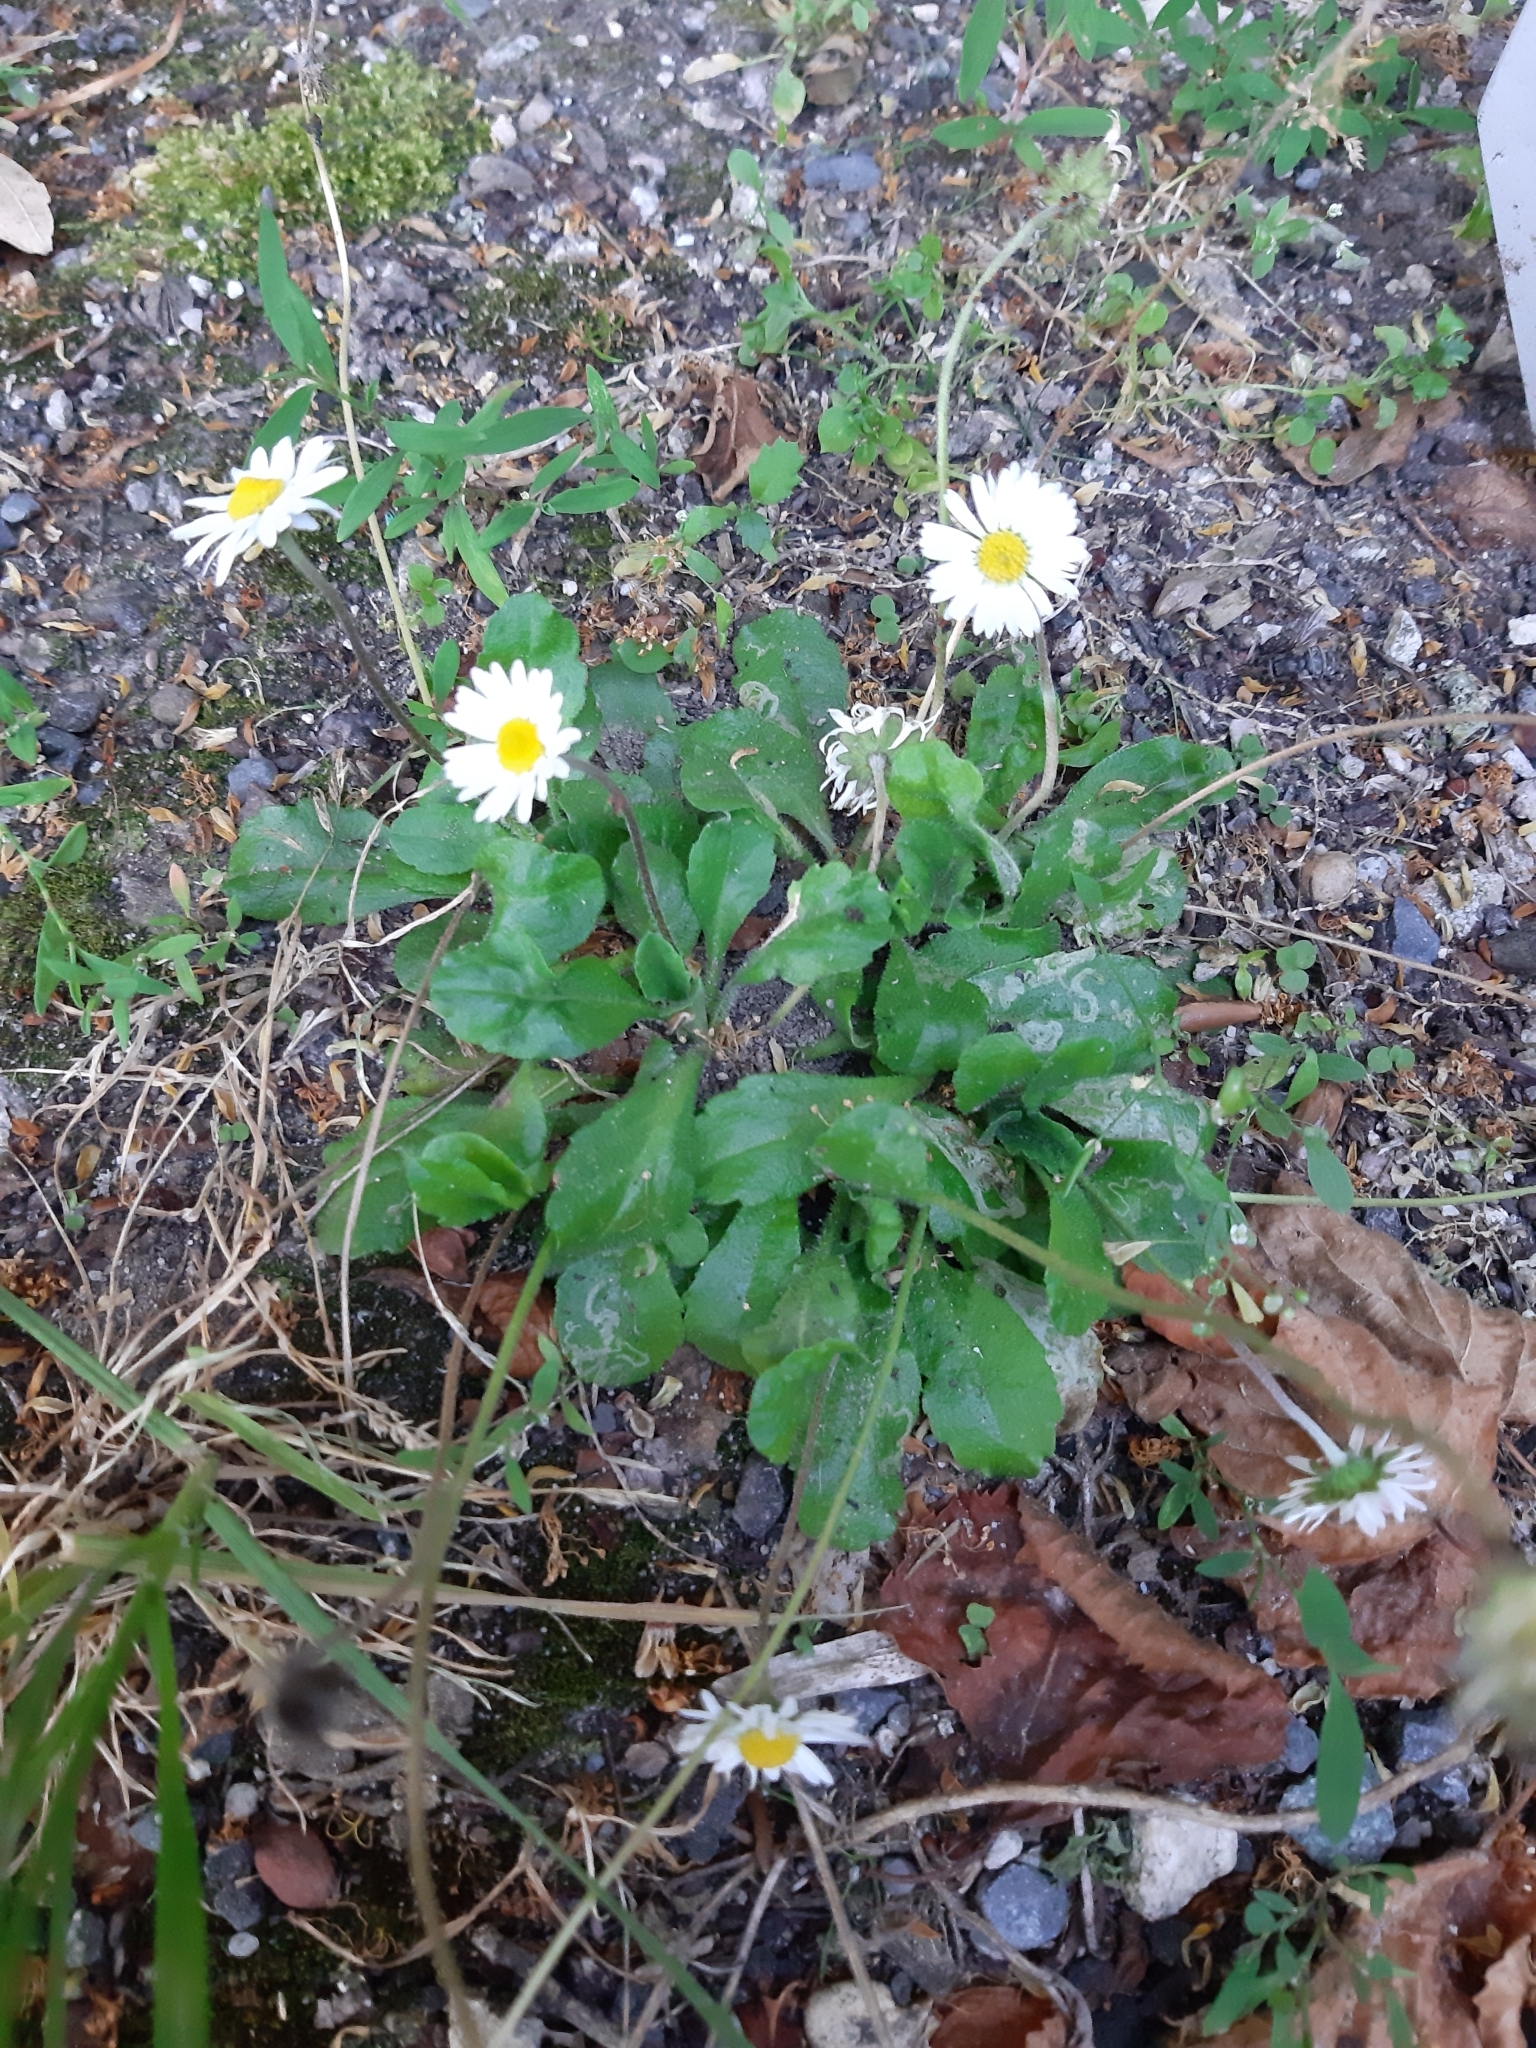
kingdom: Plantae
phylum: Tracheophyta
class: Magnoliopsida
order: Asterales
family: Asteraceae
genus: Bellis
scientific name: Bellis perennis
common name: Lawndaisy
